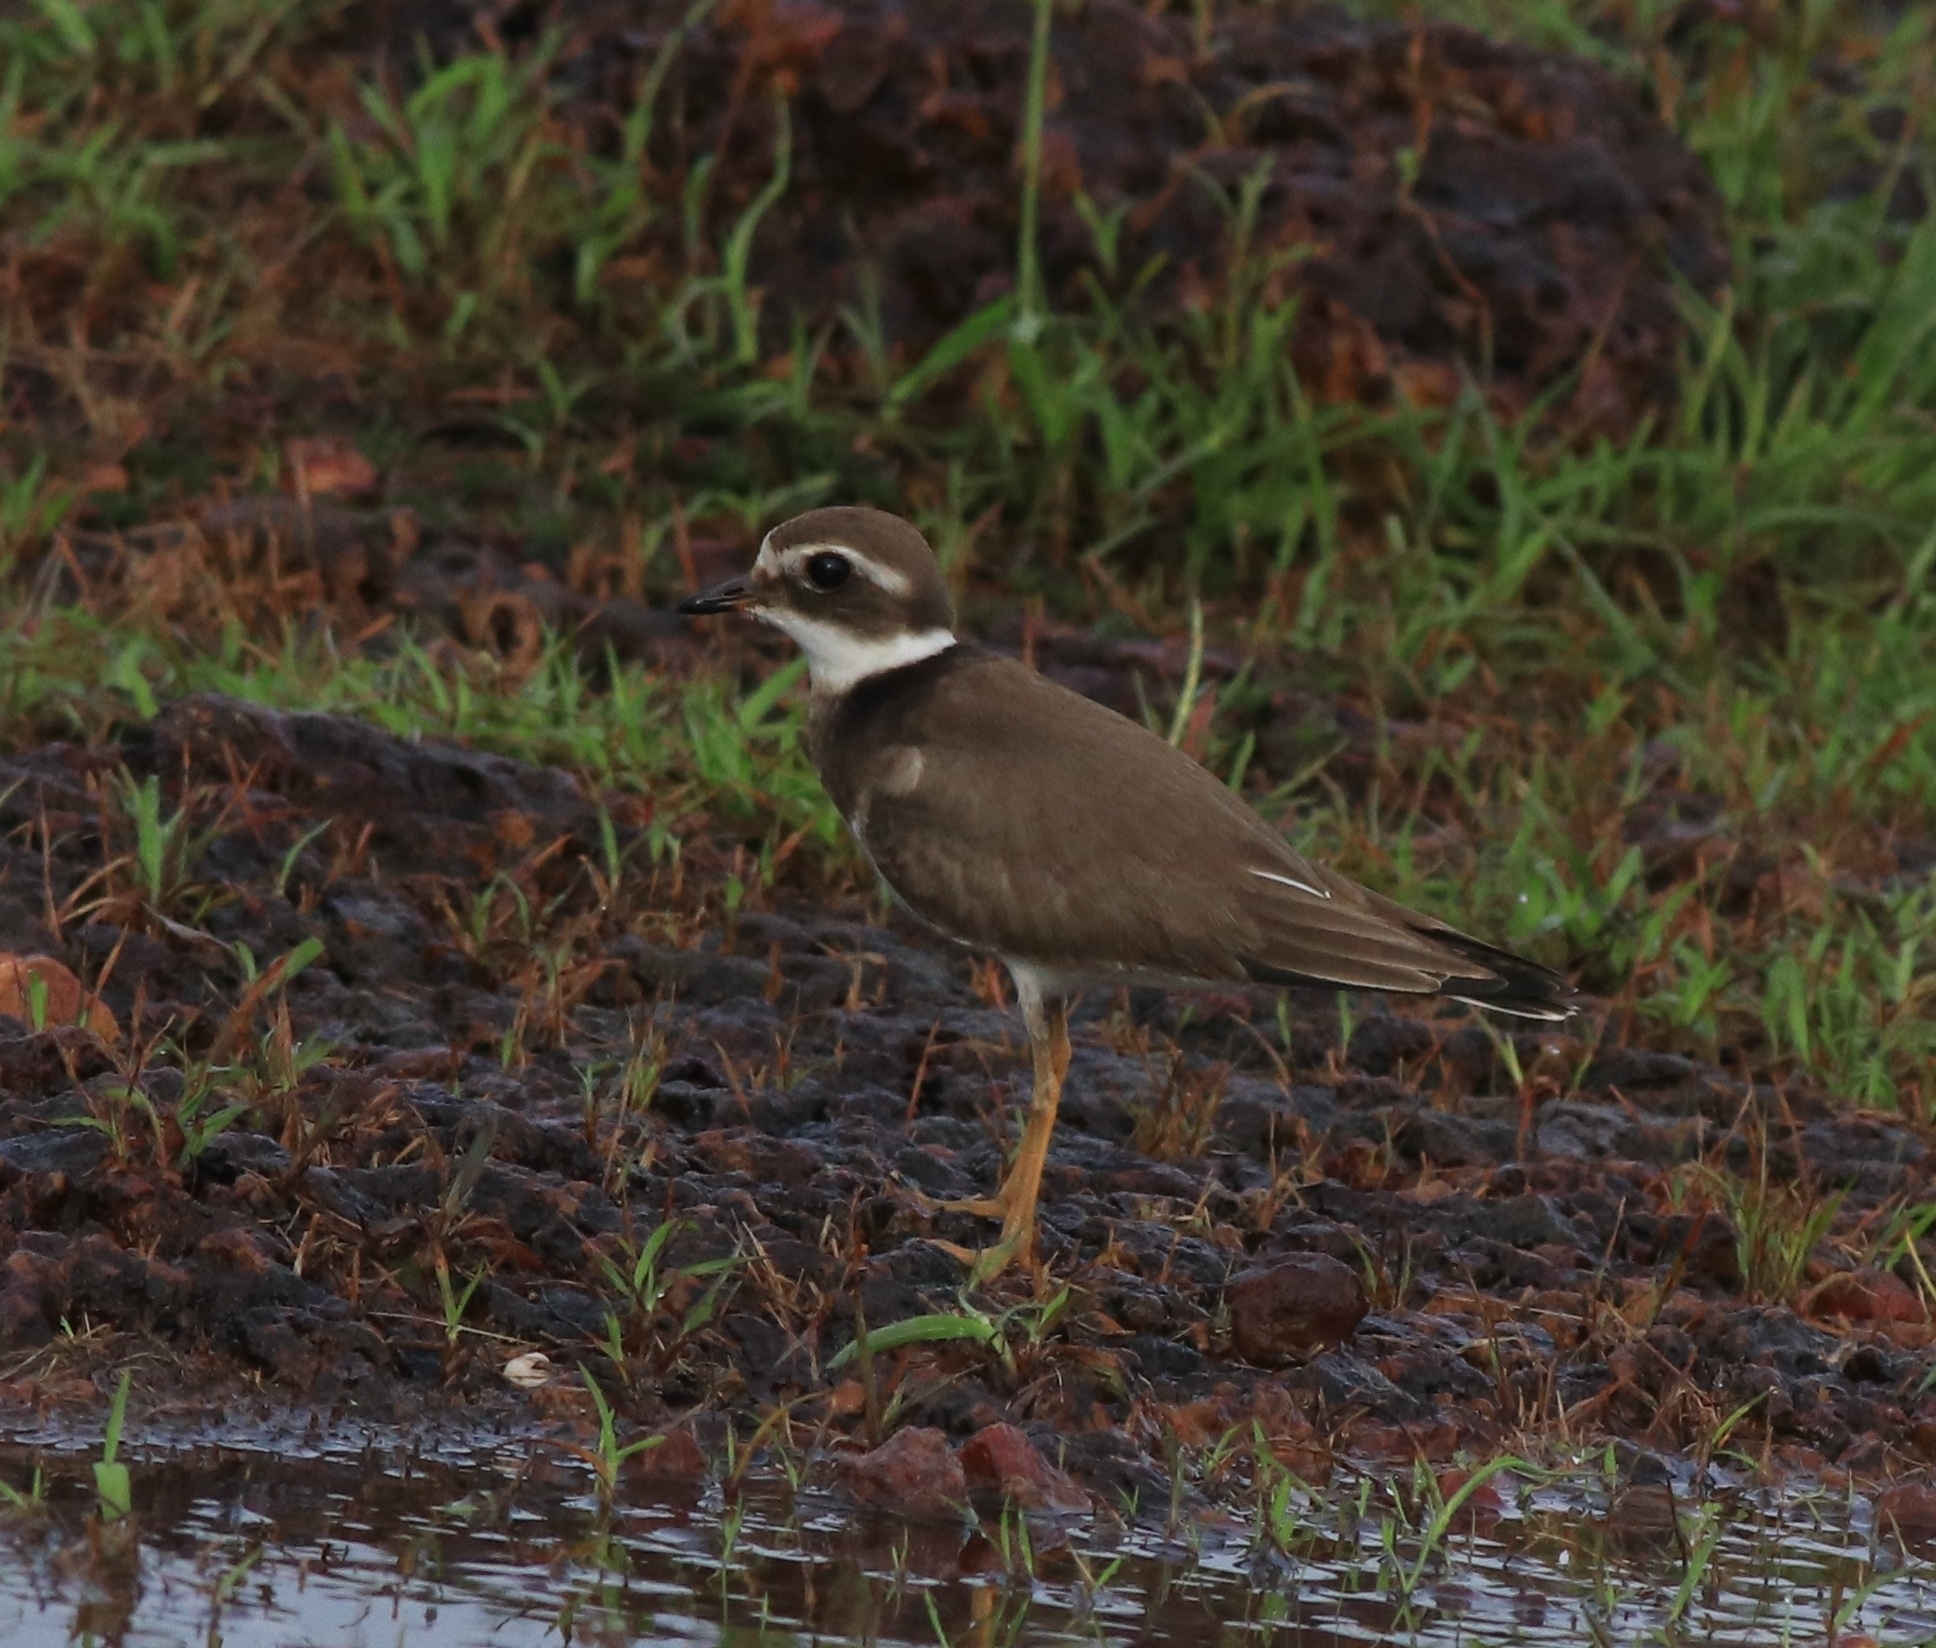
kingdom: Animalia
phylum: Chordata
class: Aves
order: Charadriiformes
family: Charadriidae
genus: Charadrius
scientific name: Charadrius hiaticula
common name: Common ringed plover
